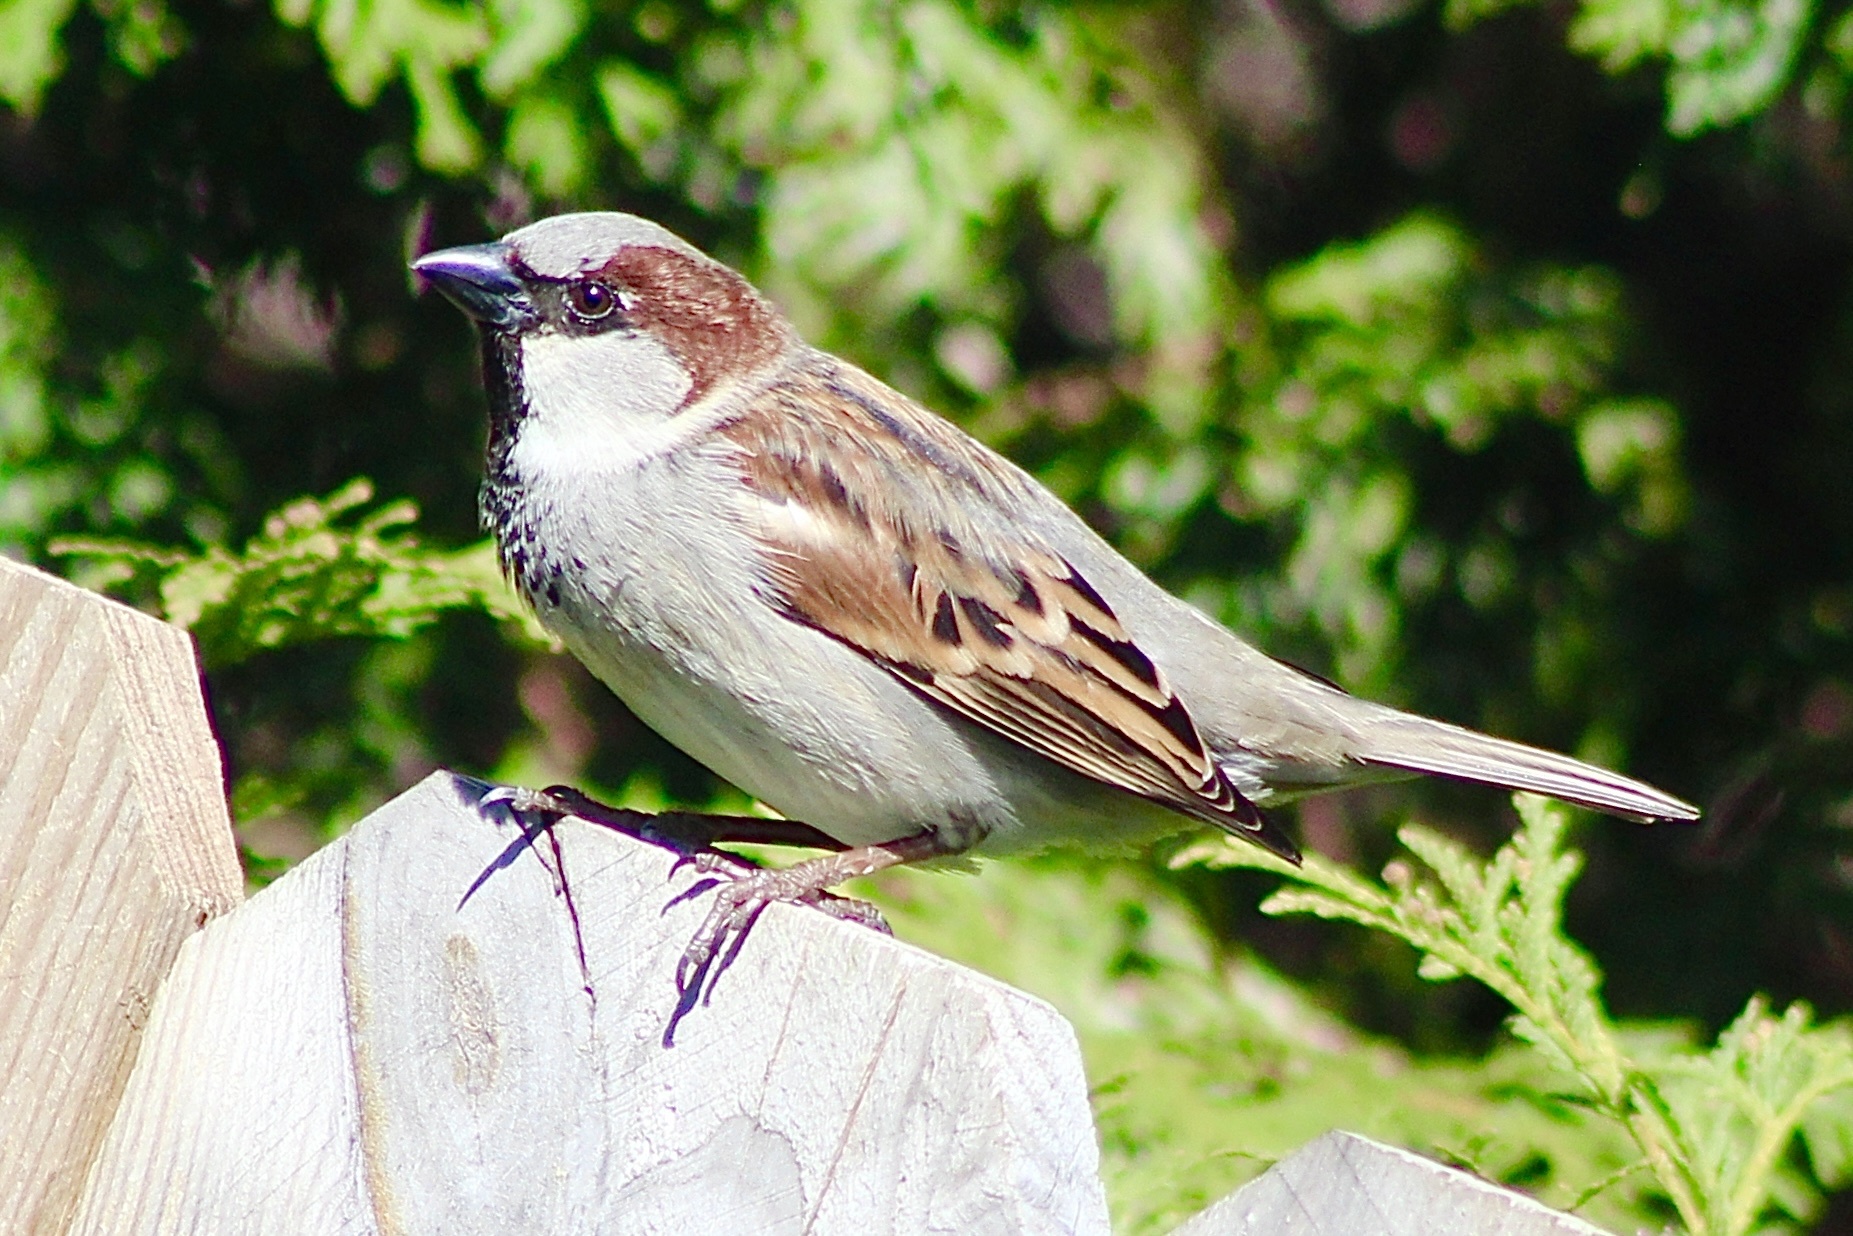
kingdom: Animalia
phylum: Chordata
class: Aves
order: Passeriformes
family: Passeridae
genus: Passer
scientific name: Passer domesticus
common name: House sparrow
